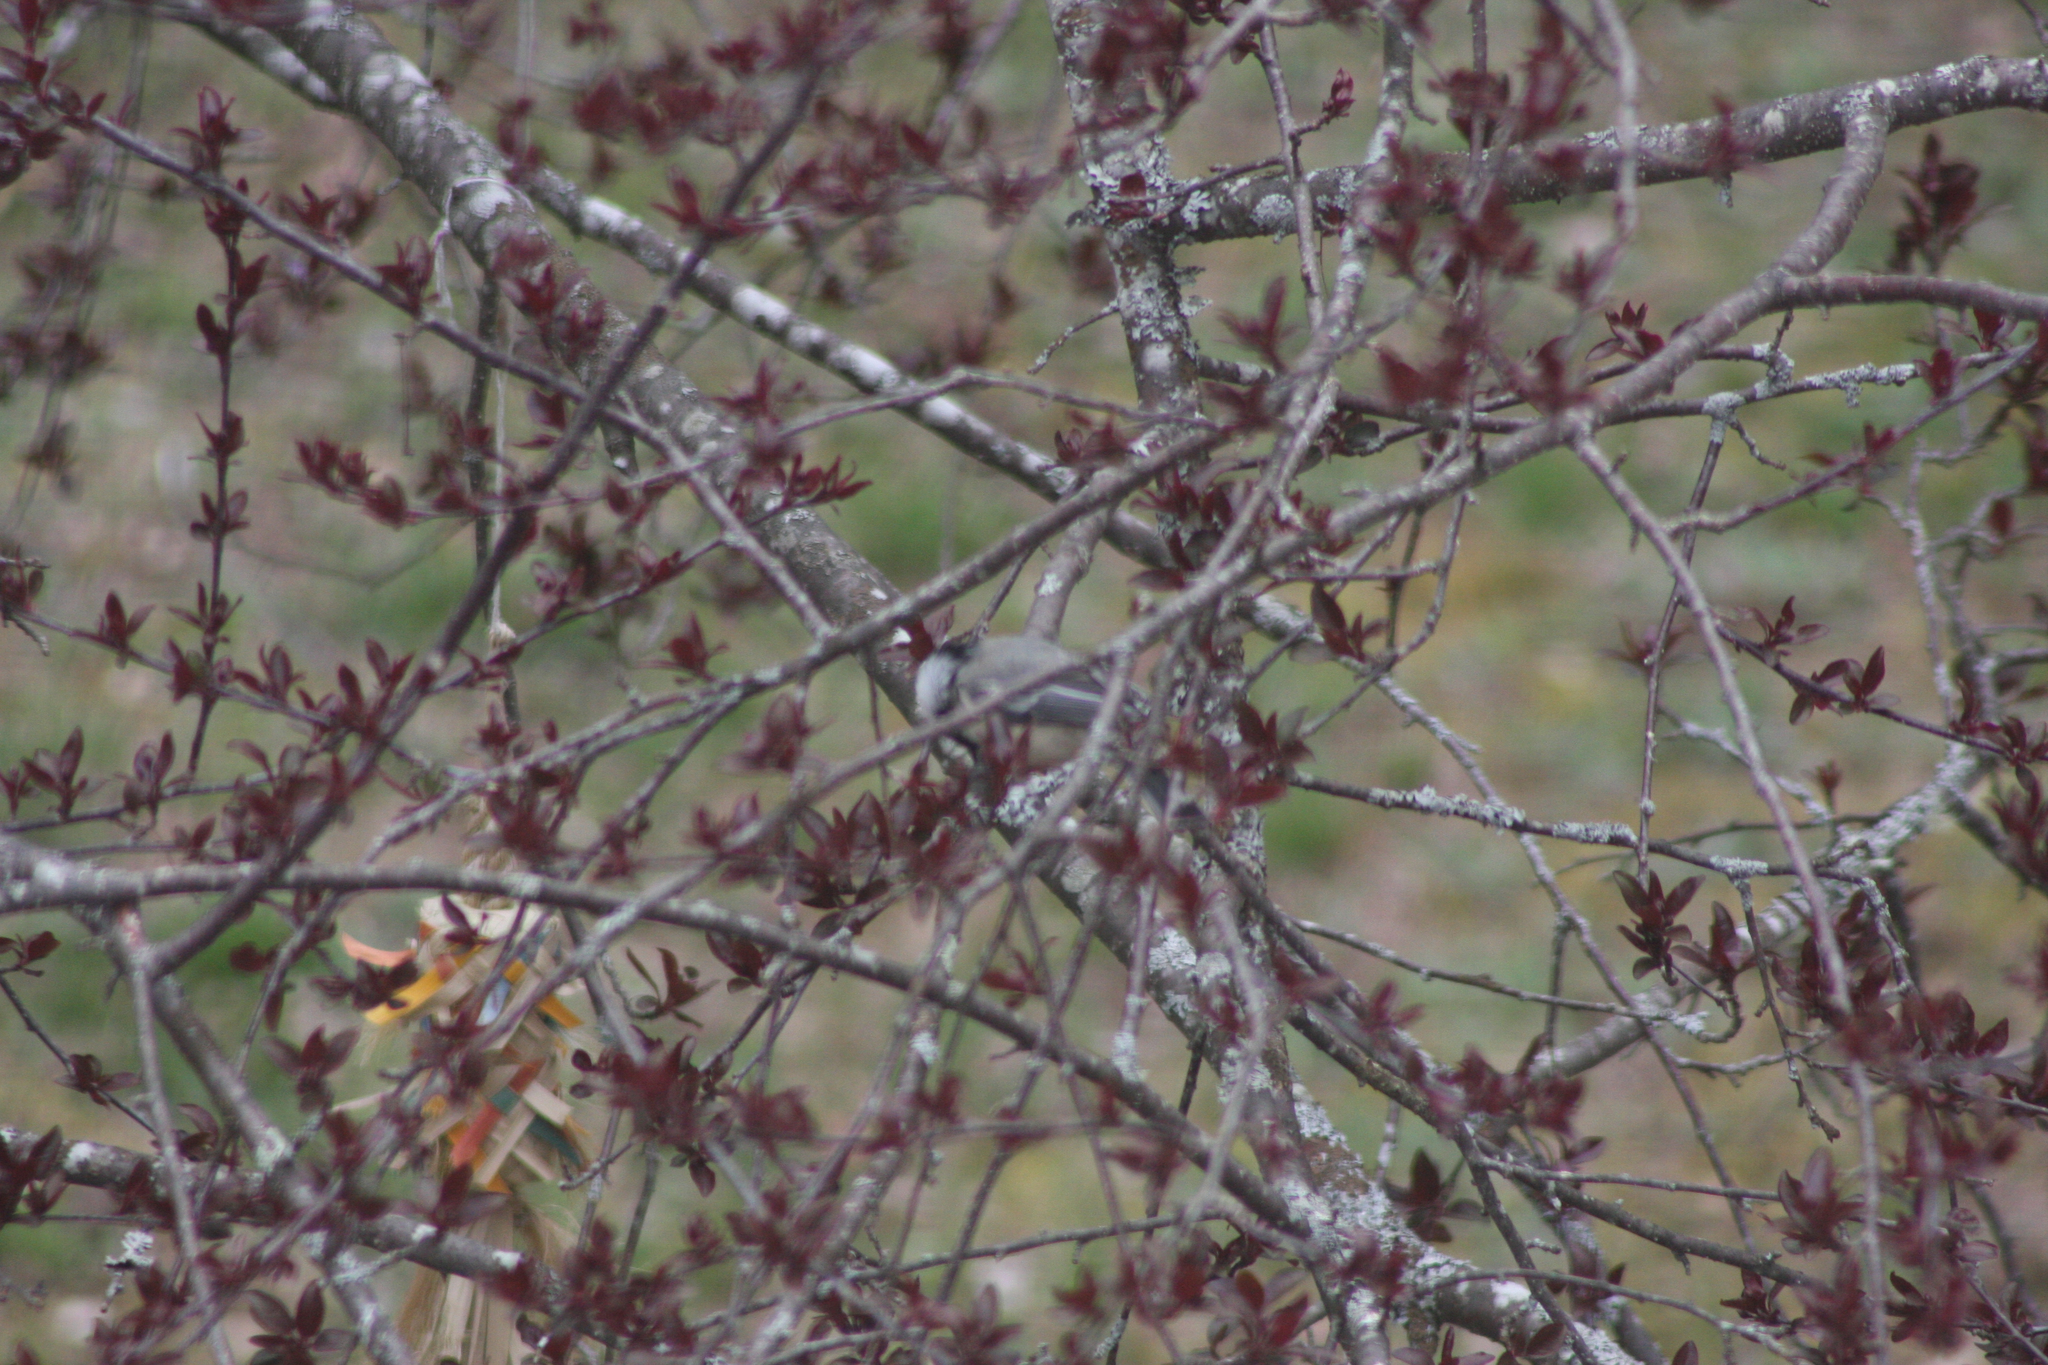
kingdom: Animalia
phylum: Chordata
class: Aves
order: Passeriformes
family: Paridae
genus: Poecile
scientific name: Poecile atricapillus
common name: Black-capped chickadee
